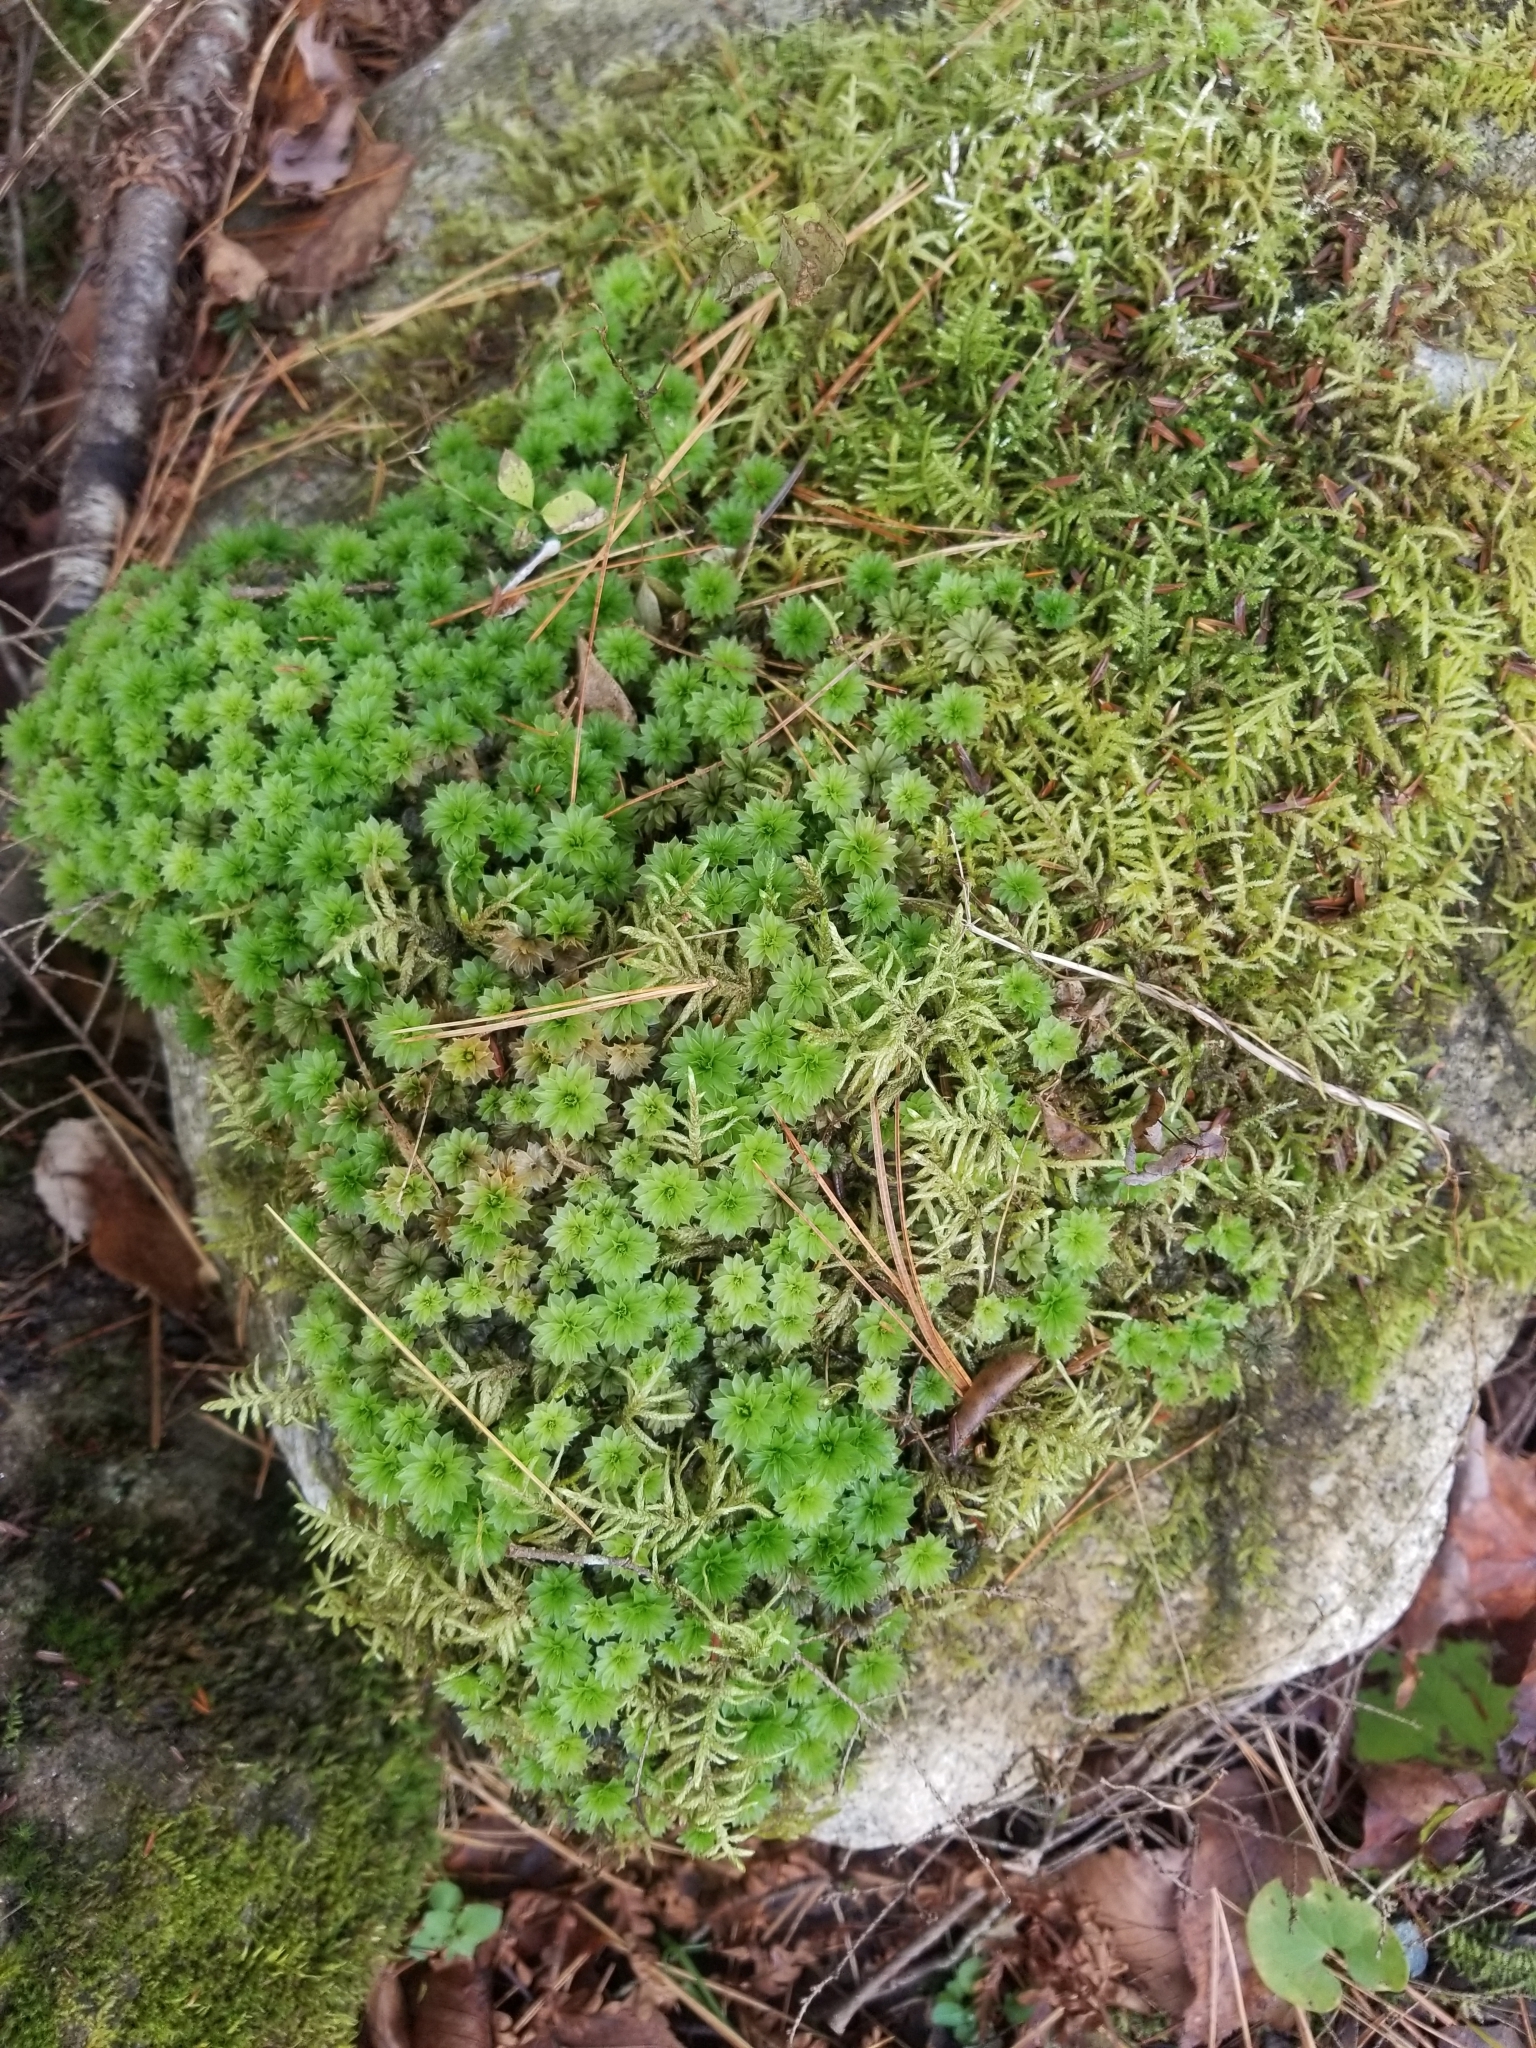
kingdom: Plantae
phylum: Bryophyta
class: Bryopsida
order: Bryales
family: Bryaceae
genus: Rhodobryum
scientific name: Rhodobryum ontariense
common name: Ontario rhodobryum moss
